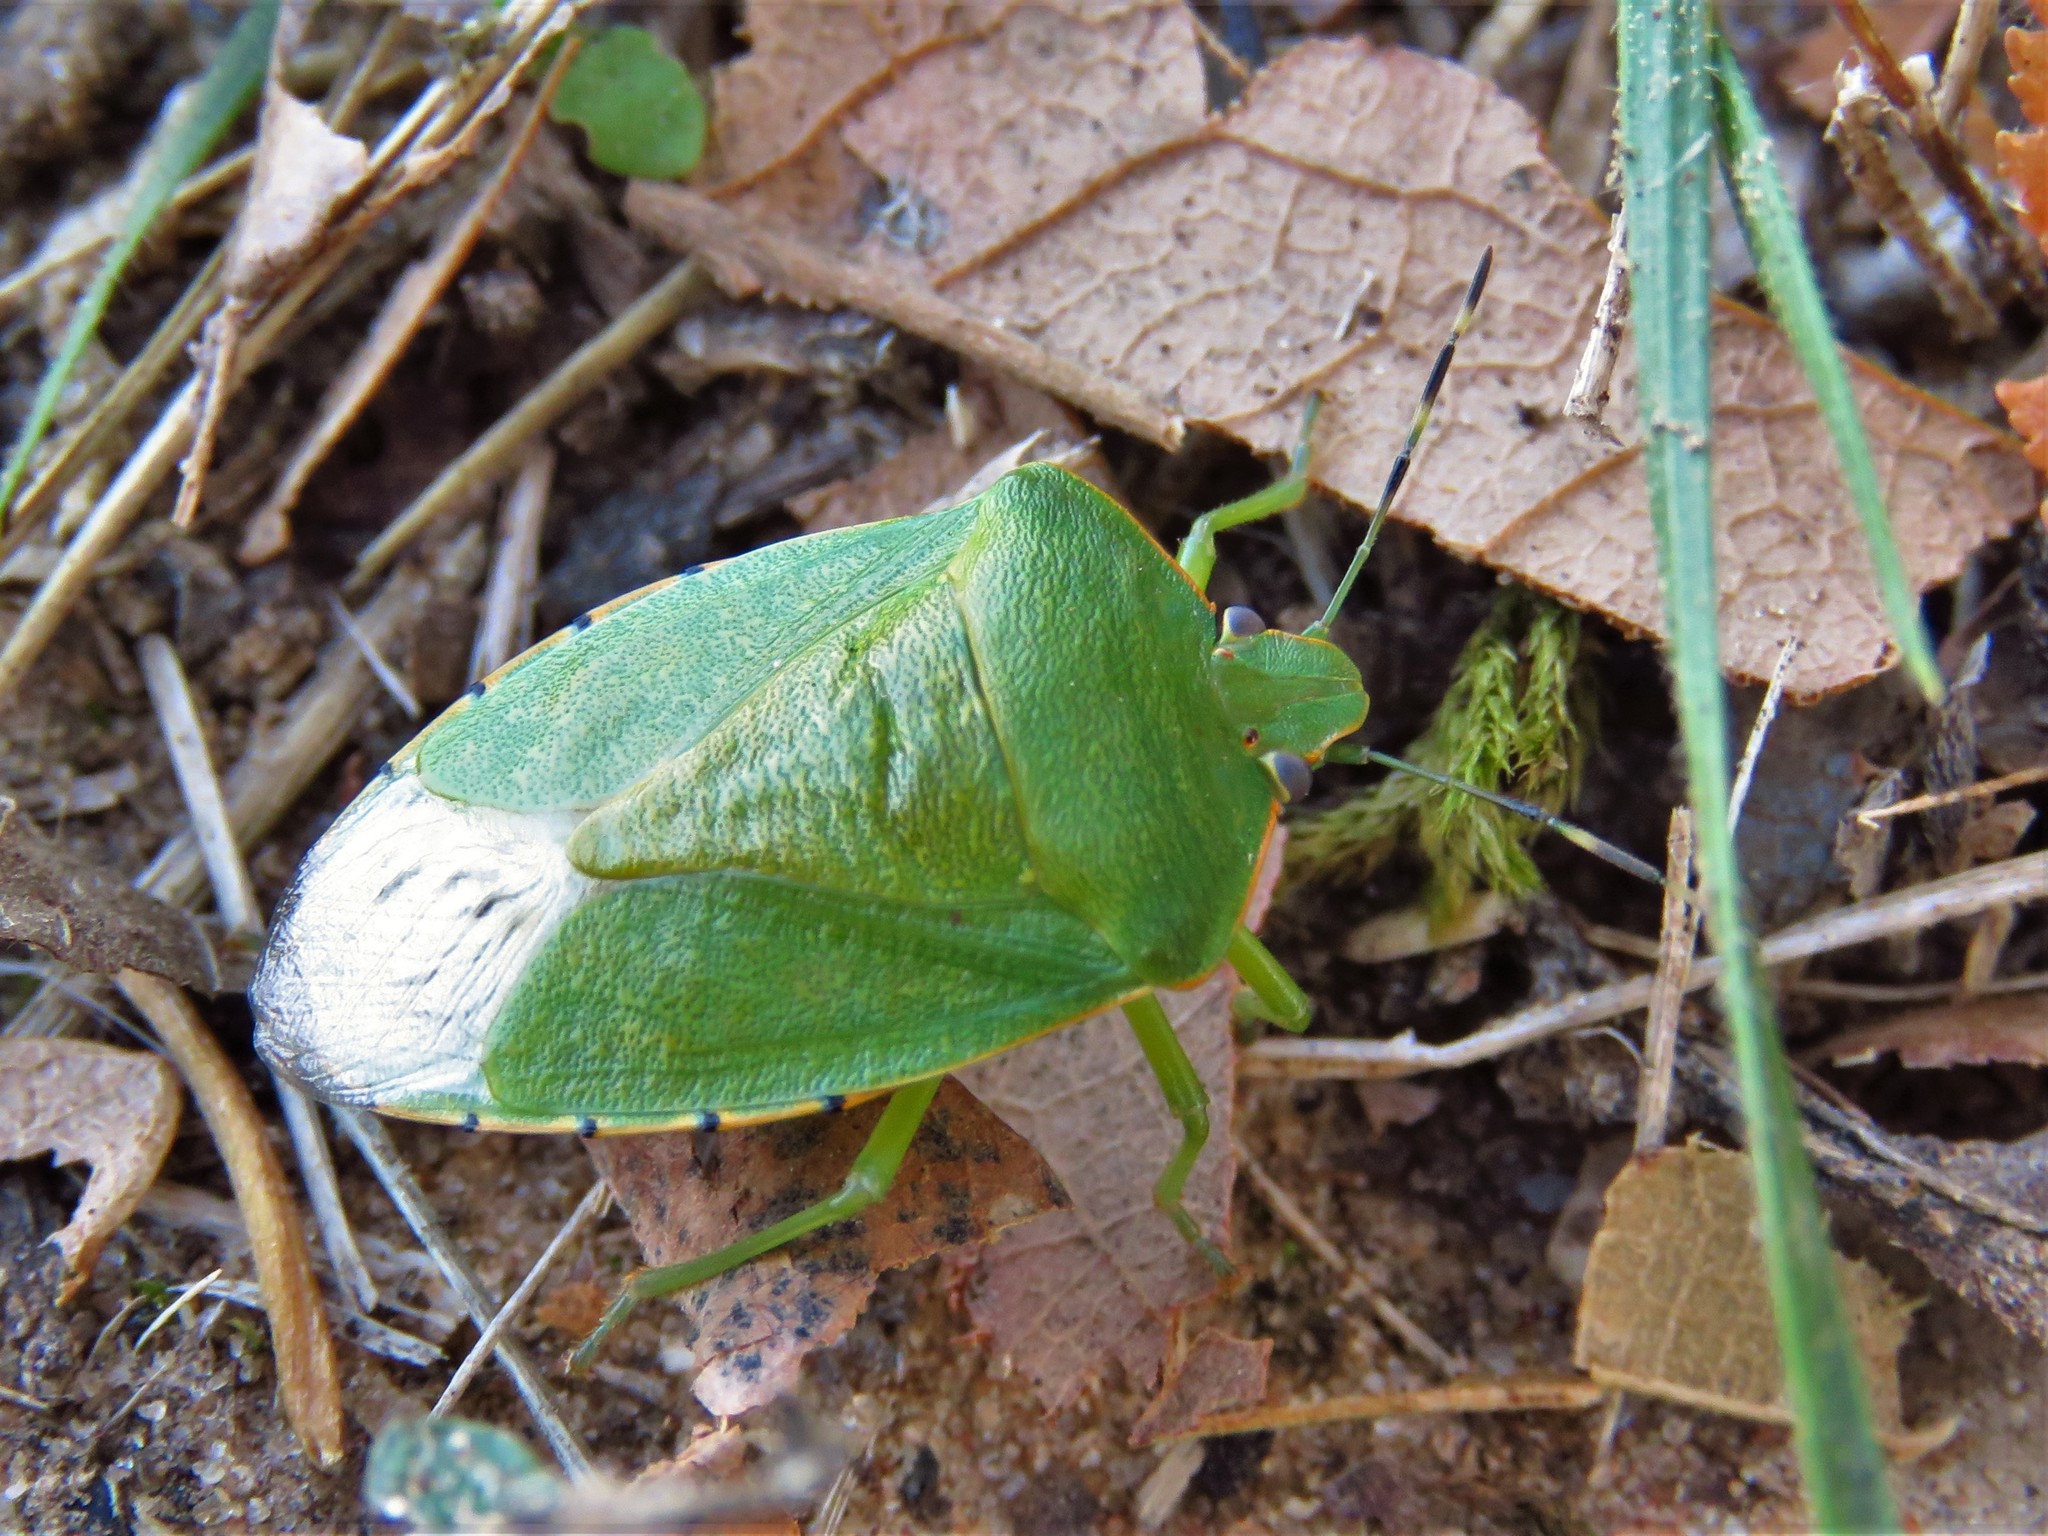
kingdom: Animalia
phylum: Arthropoda
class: Insecta
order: Hemiptera
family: Pentatomidae
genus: Chinavia
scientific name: Chinavia hilaris
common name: Green stink bug
